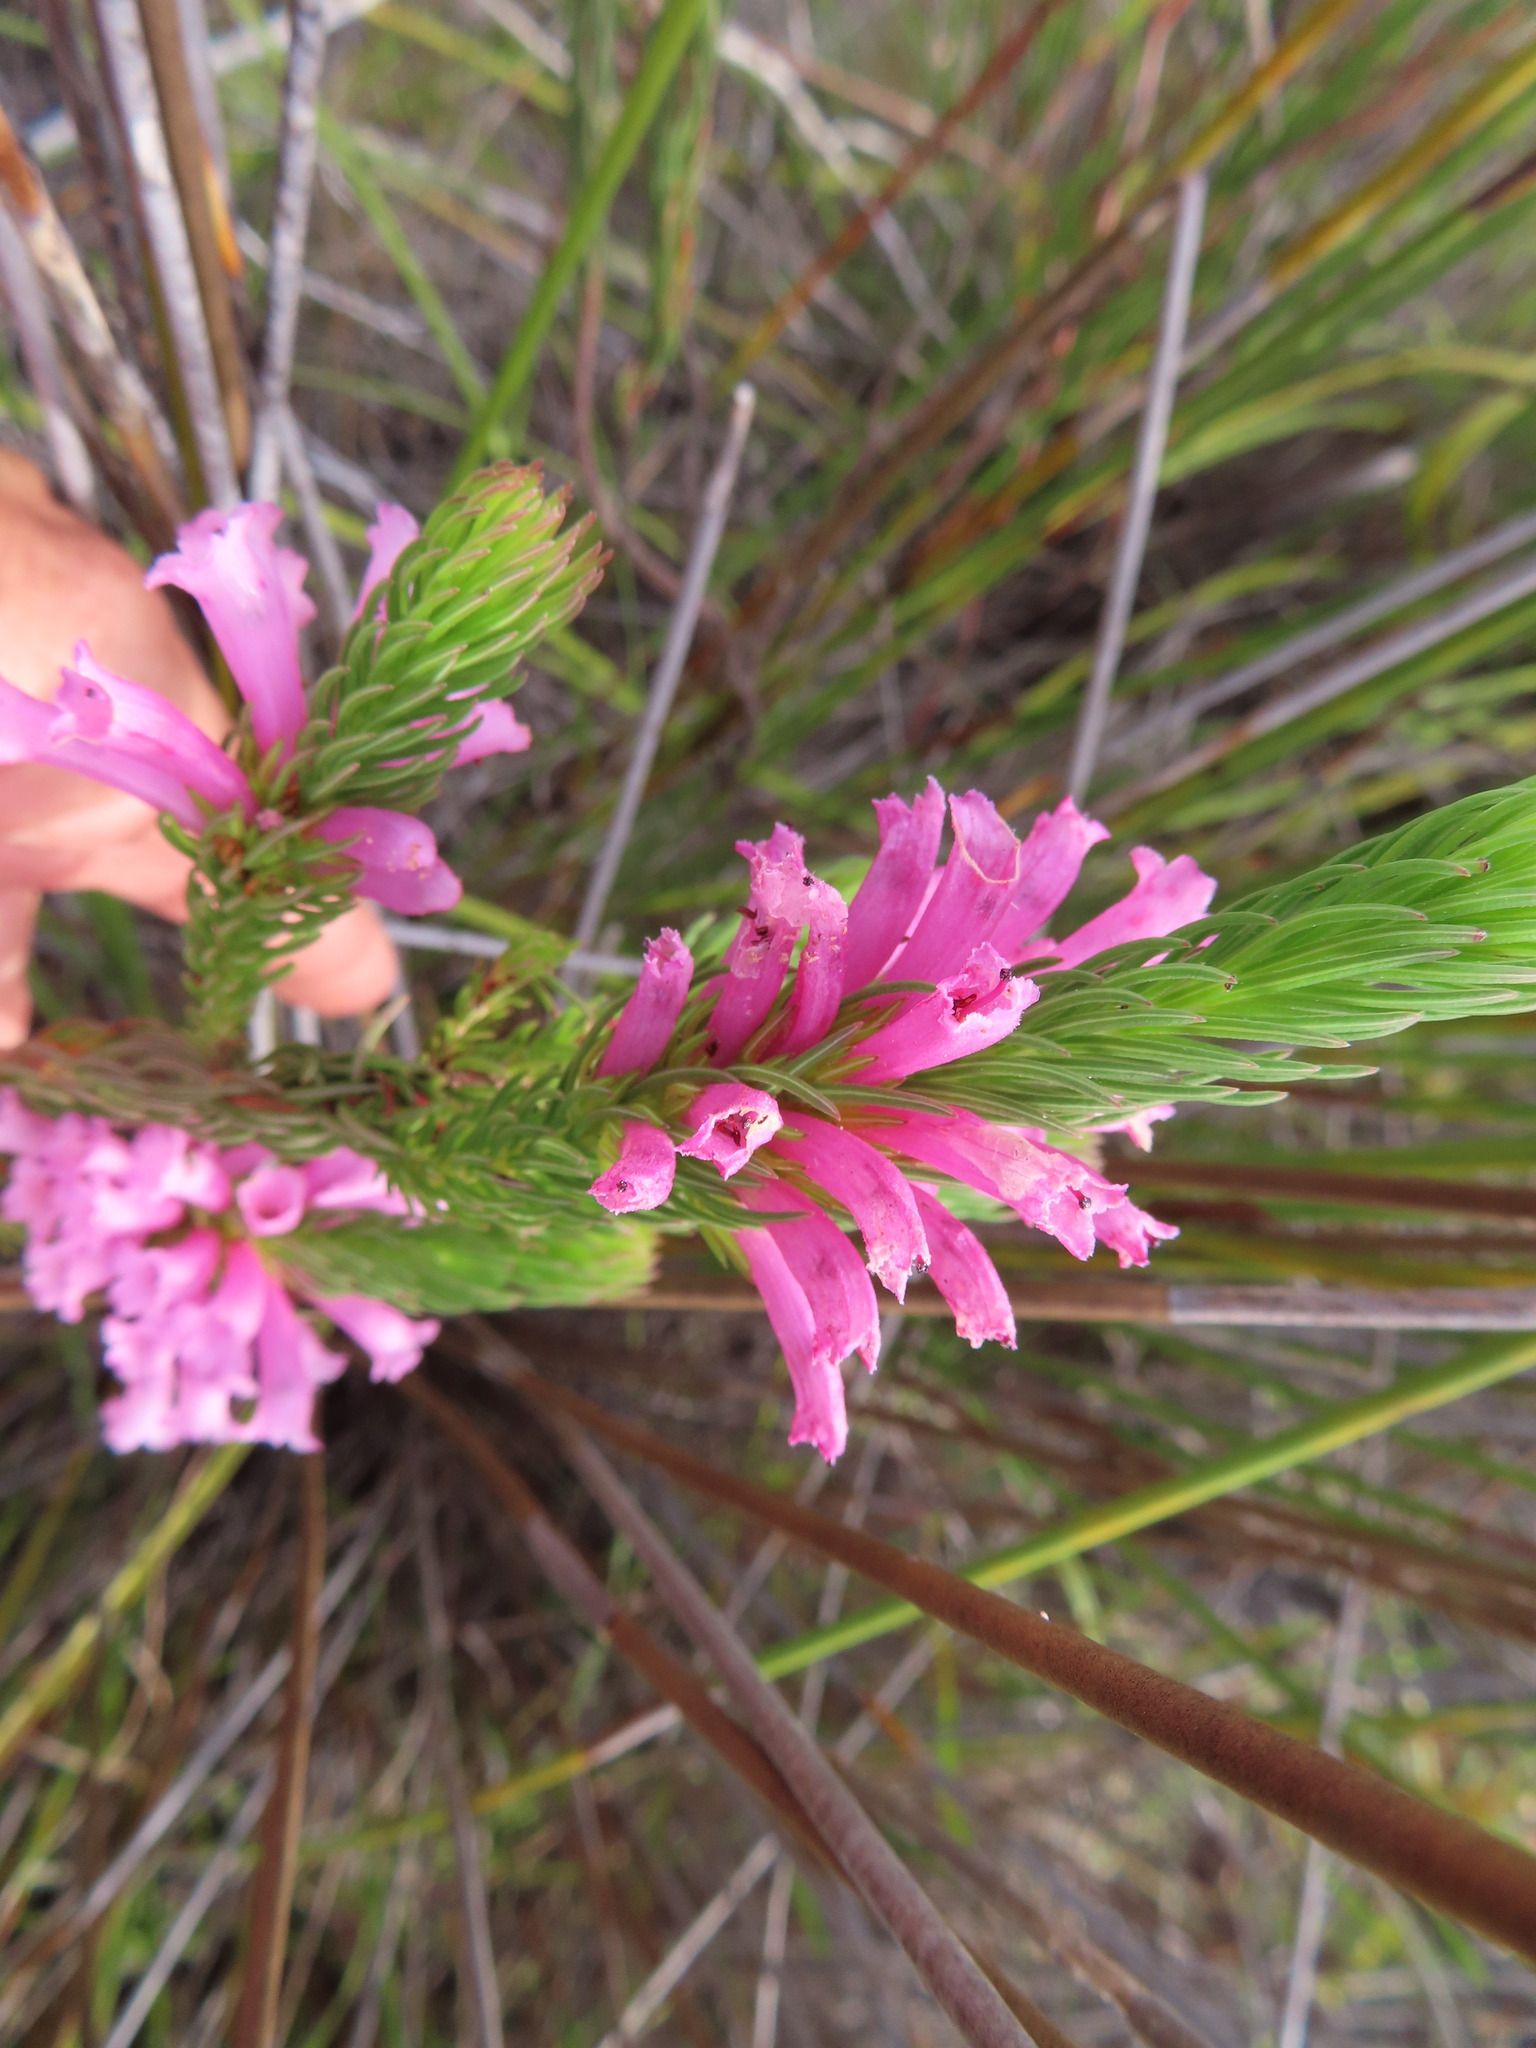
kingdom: Plantae
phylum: Tracheophyta
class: Magnoliopsida
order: Ericales
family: Ericaceae
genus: Erica
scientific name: Erica vestita
